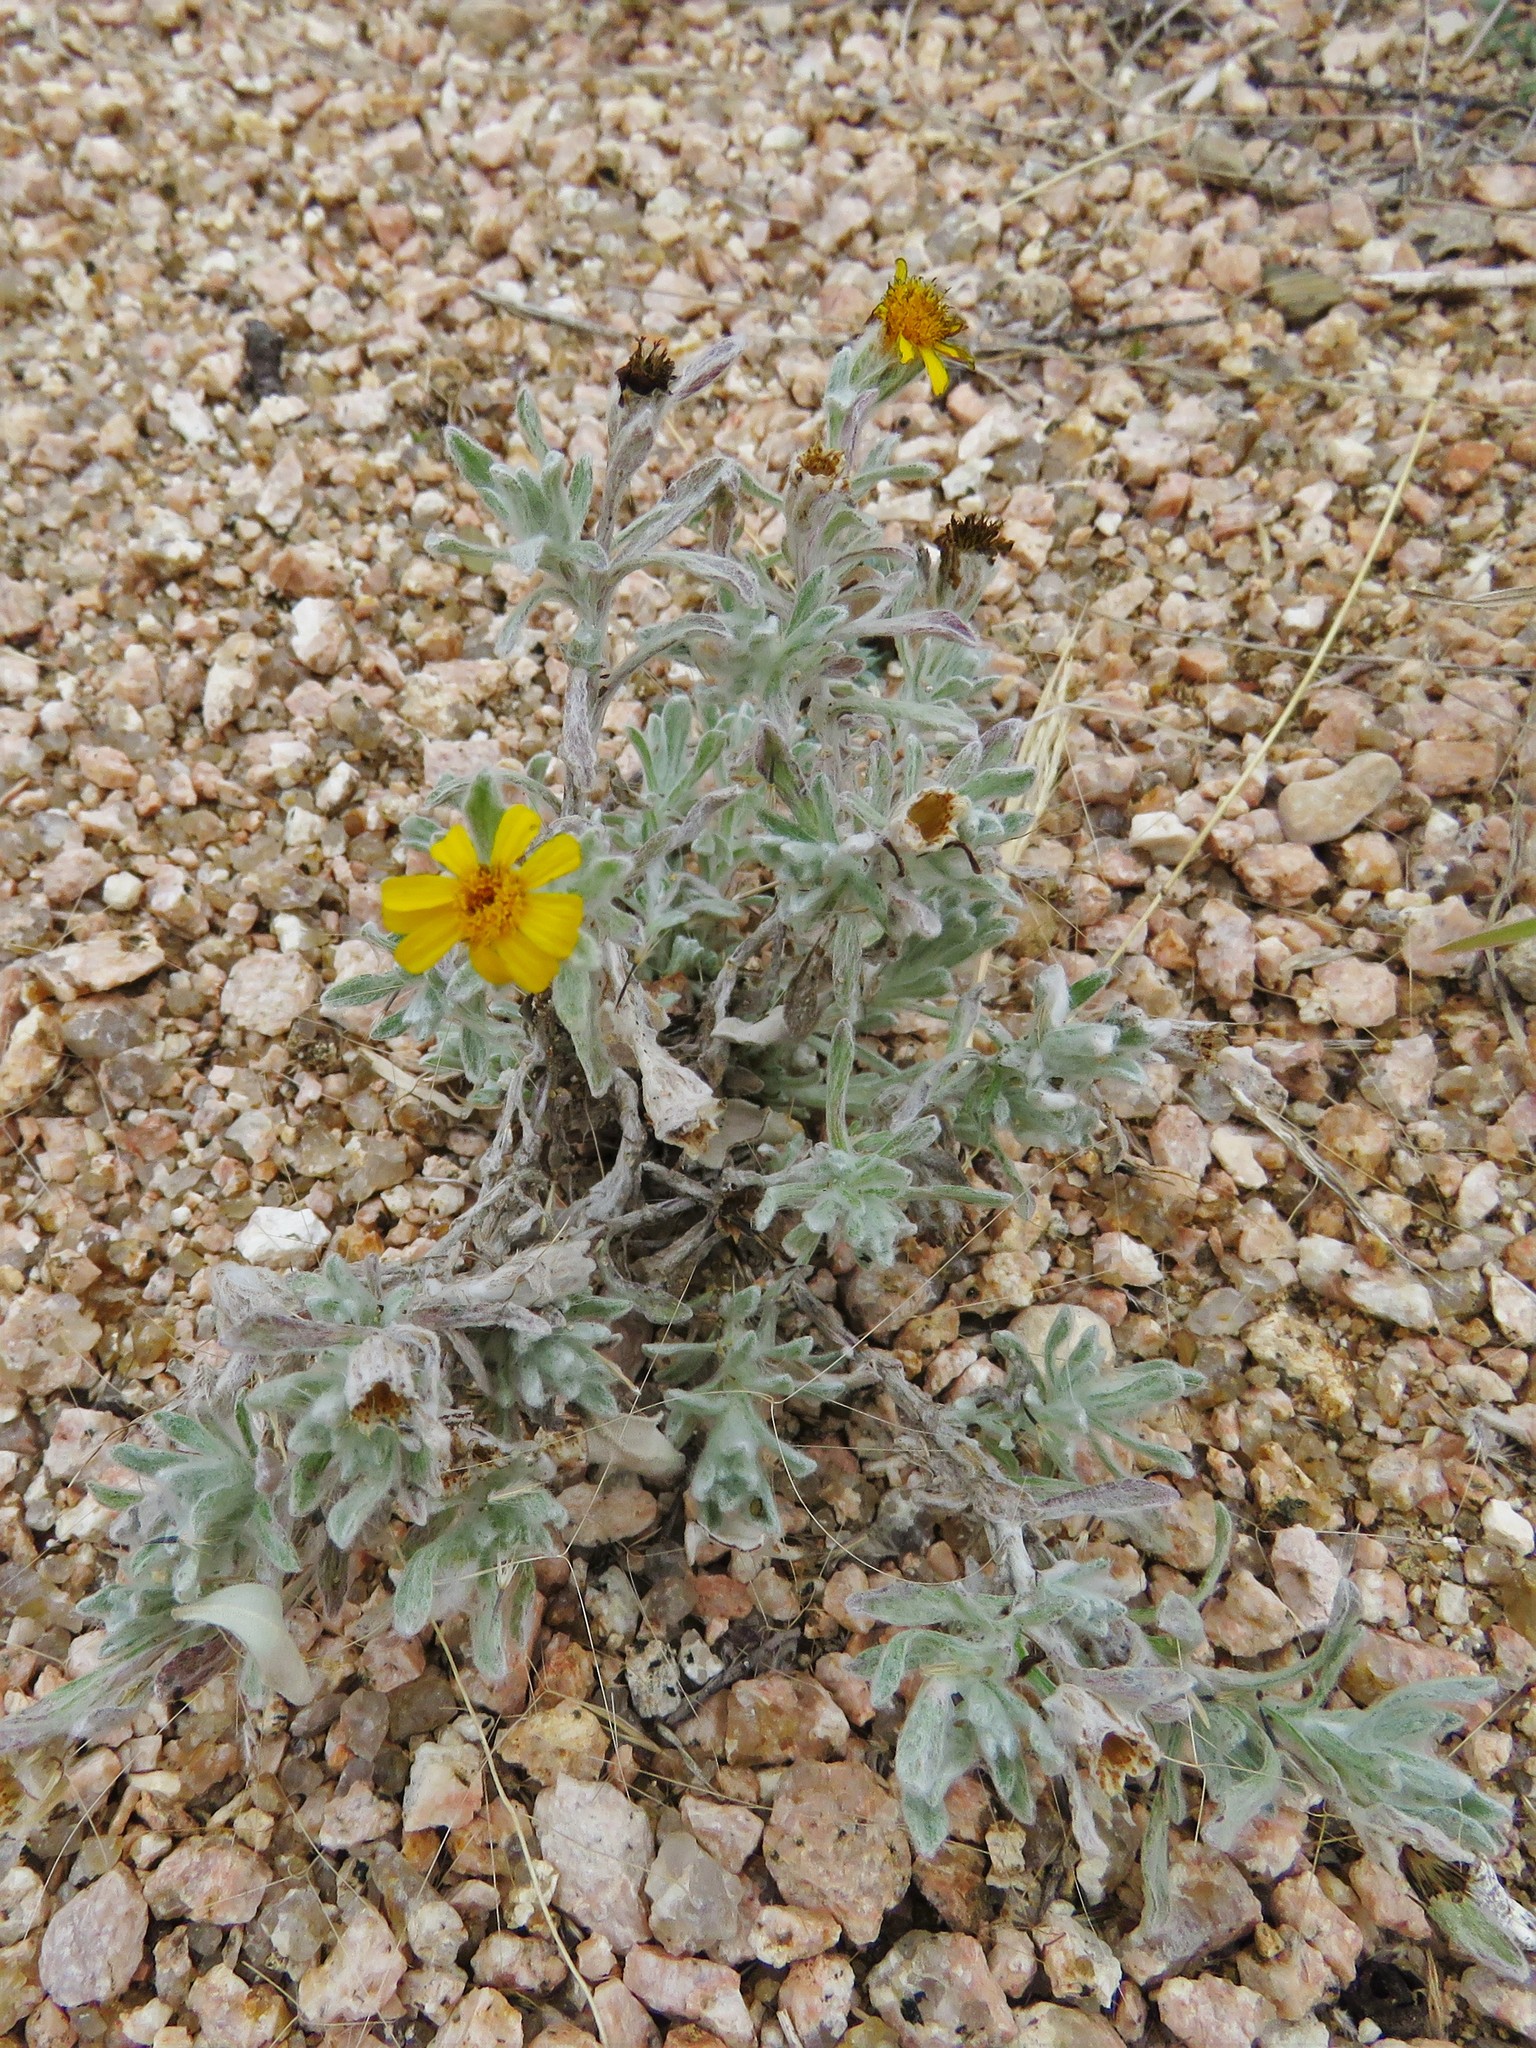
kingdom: Plantae
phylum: Tracheophyta
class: Magnoliopsida
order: Asterales
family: Asteraceae
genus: Thymophylla
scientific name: Thymophylla micropoides
